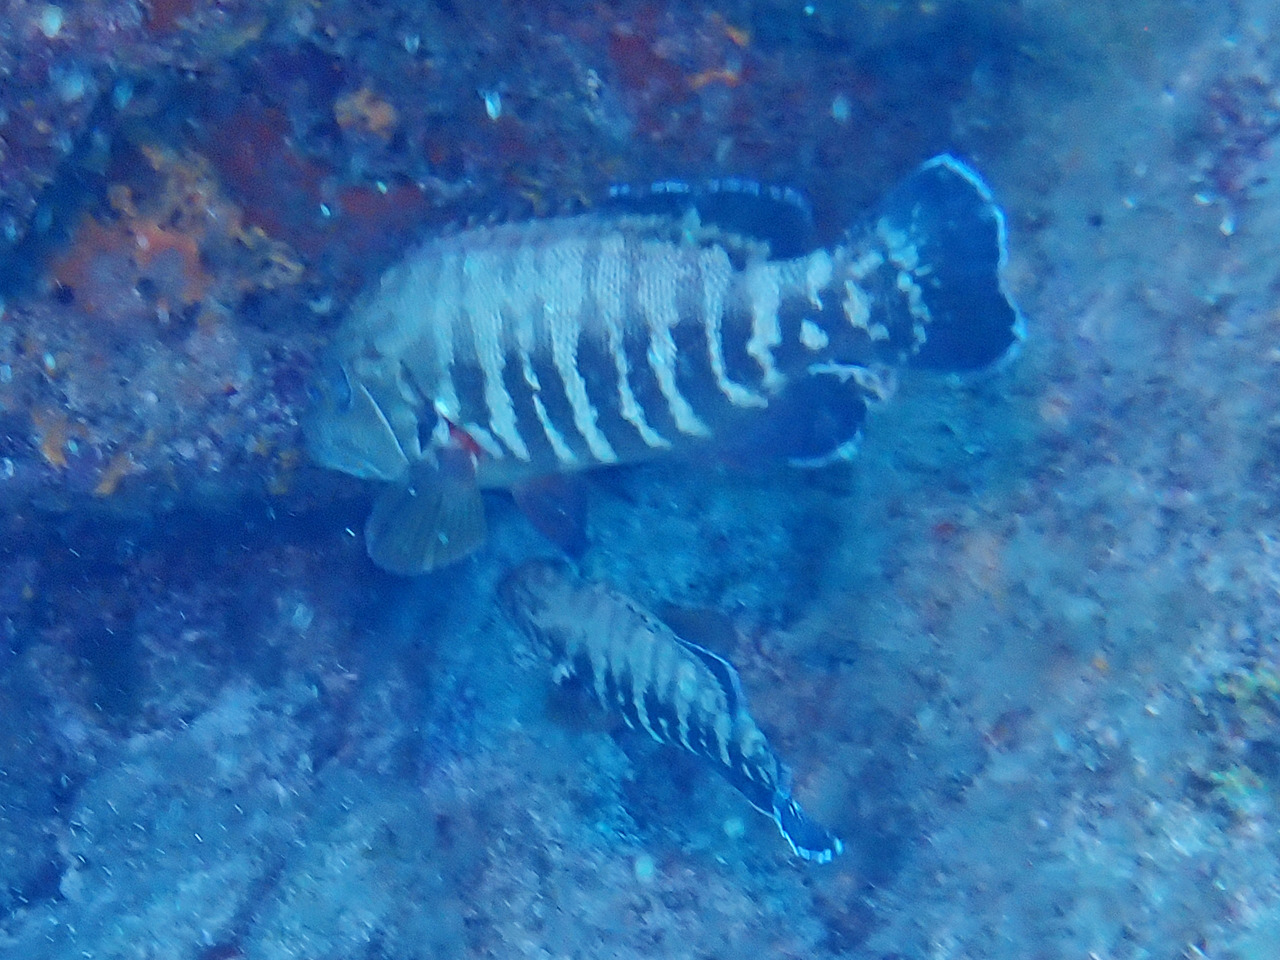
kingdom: Animalia
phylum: Chordata
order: Perciformes
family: Serranidae
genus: Cephalopholis
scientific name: Cephalopholis panamensis
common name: Pacific graysby
